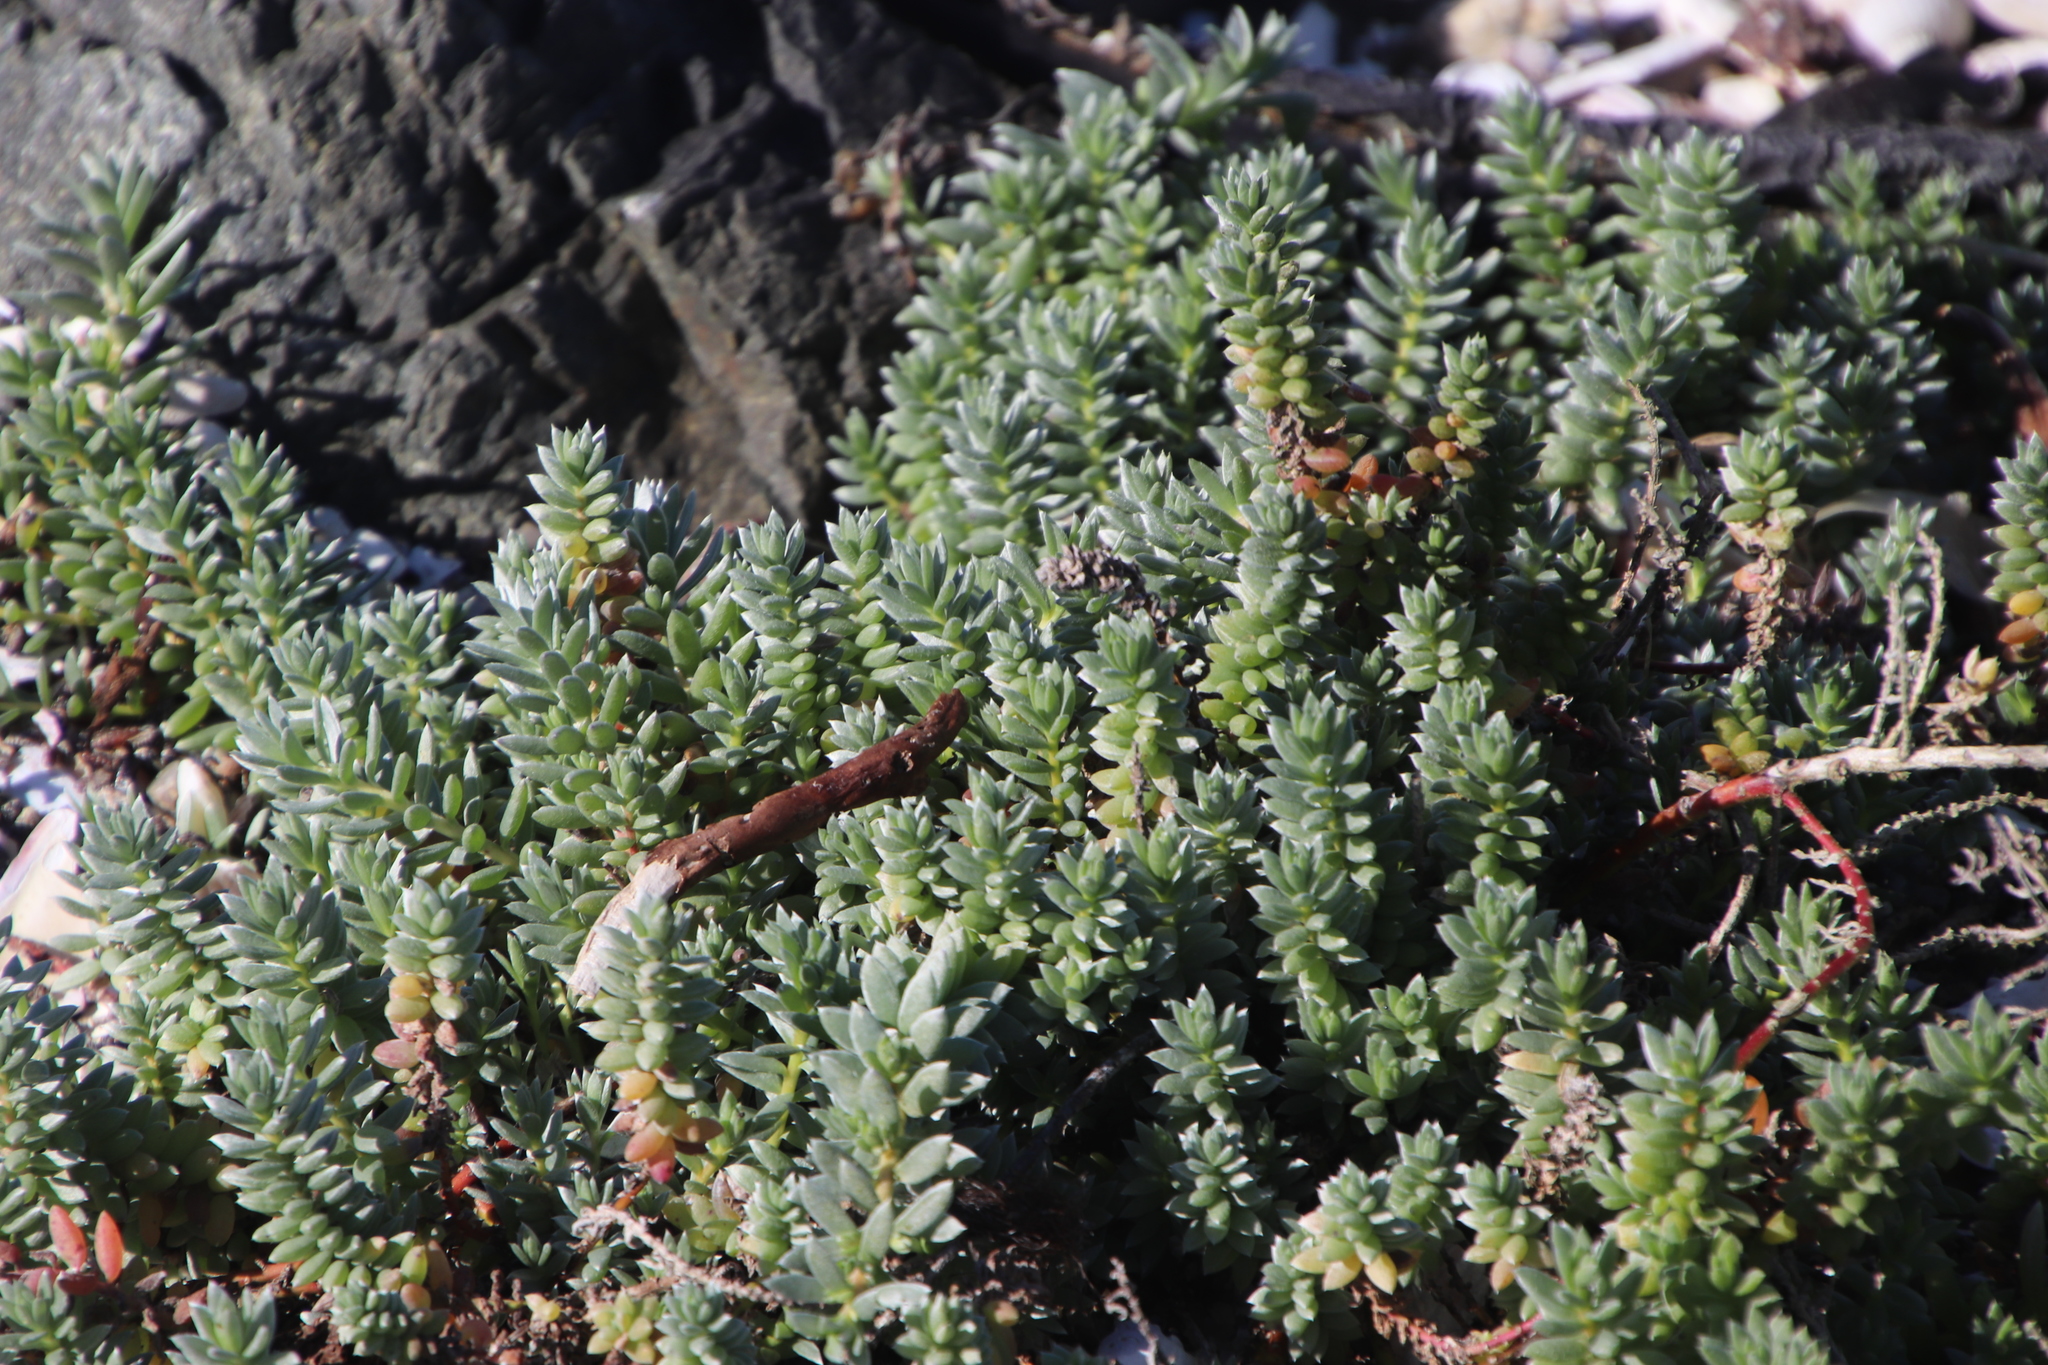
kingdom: Plantae
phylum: Tracheophyta
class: Magnoliopsida
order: Caryophyllales
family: Amaranthaceae
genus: Chenolea
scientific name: Chenolea diffusa
